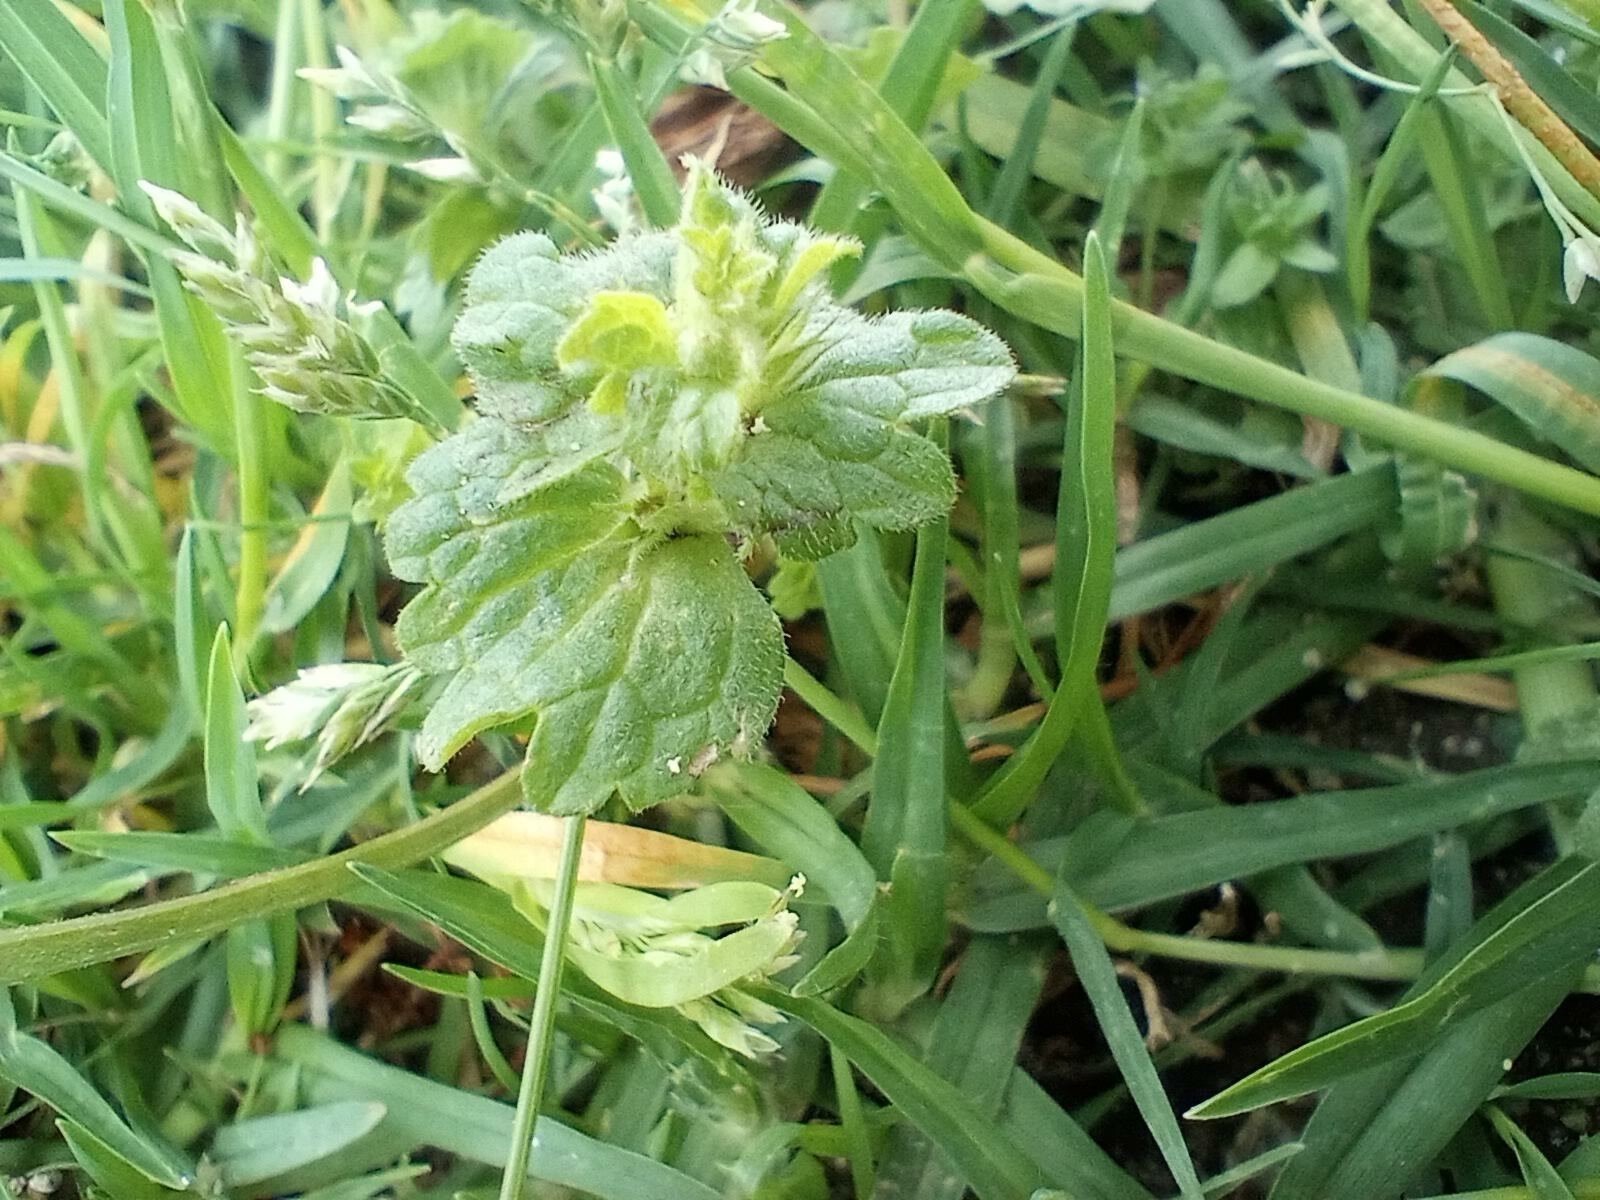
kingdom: Plantae
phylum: Tracheophyta
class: Magnoliopsida
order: Lamiales
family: Plantaginaceae
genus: Veronica
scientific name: Veronica persica
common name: Common field-speedwell
